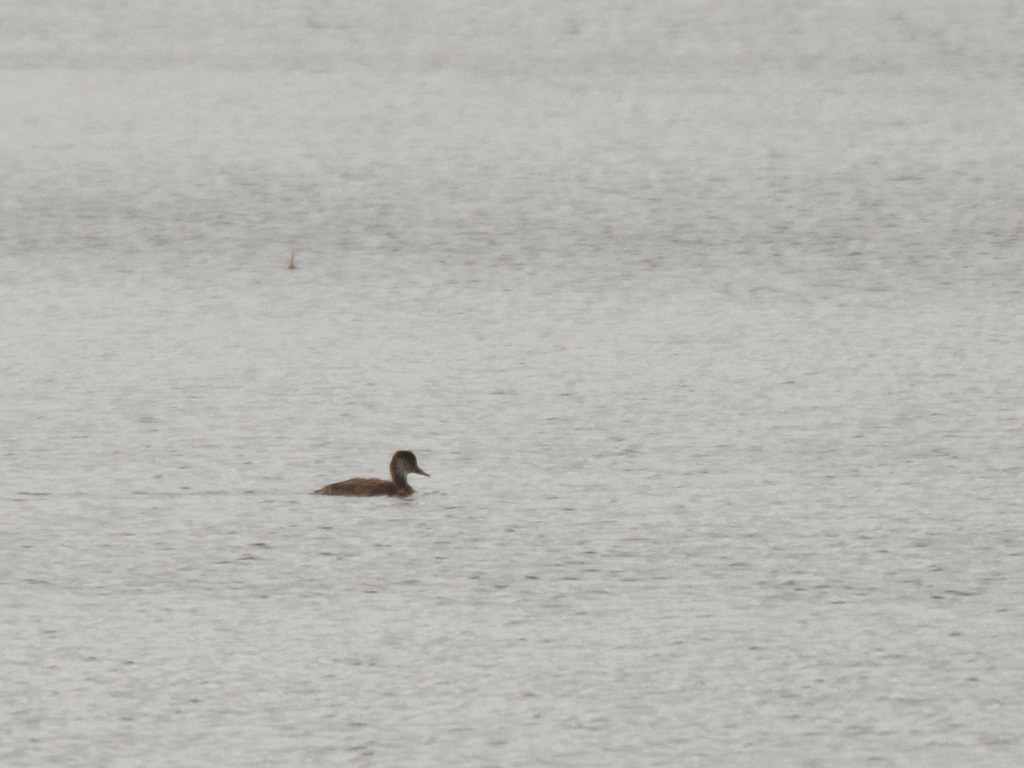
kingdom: Animalia
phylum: Chordata
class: Aves
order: Anseriformes
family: Anatidae
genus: Netta
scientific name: Netta rufina
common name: Red-crested pochard
